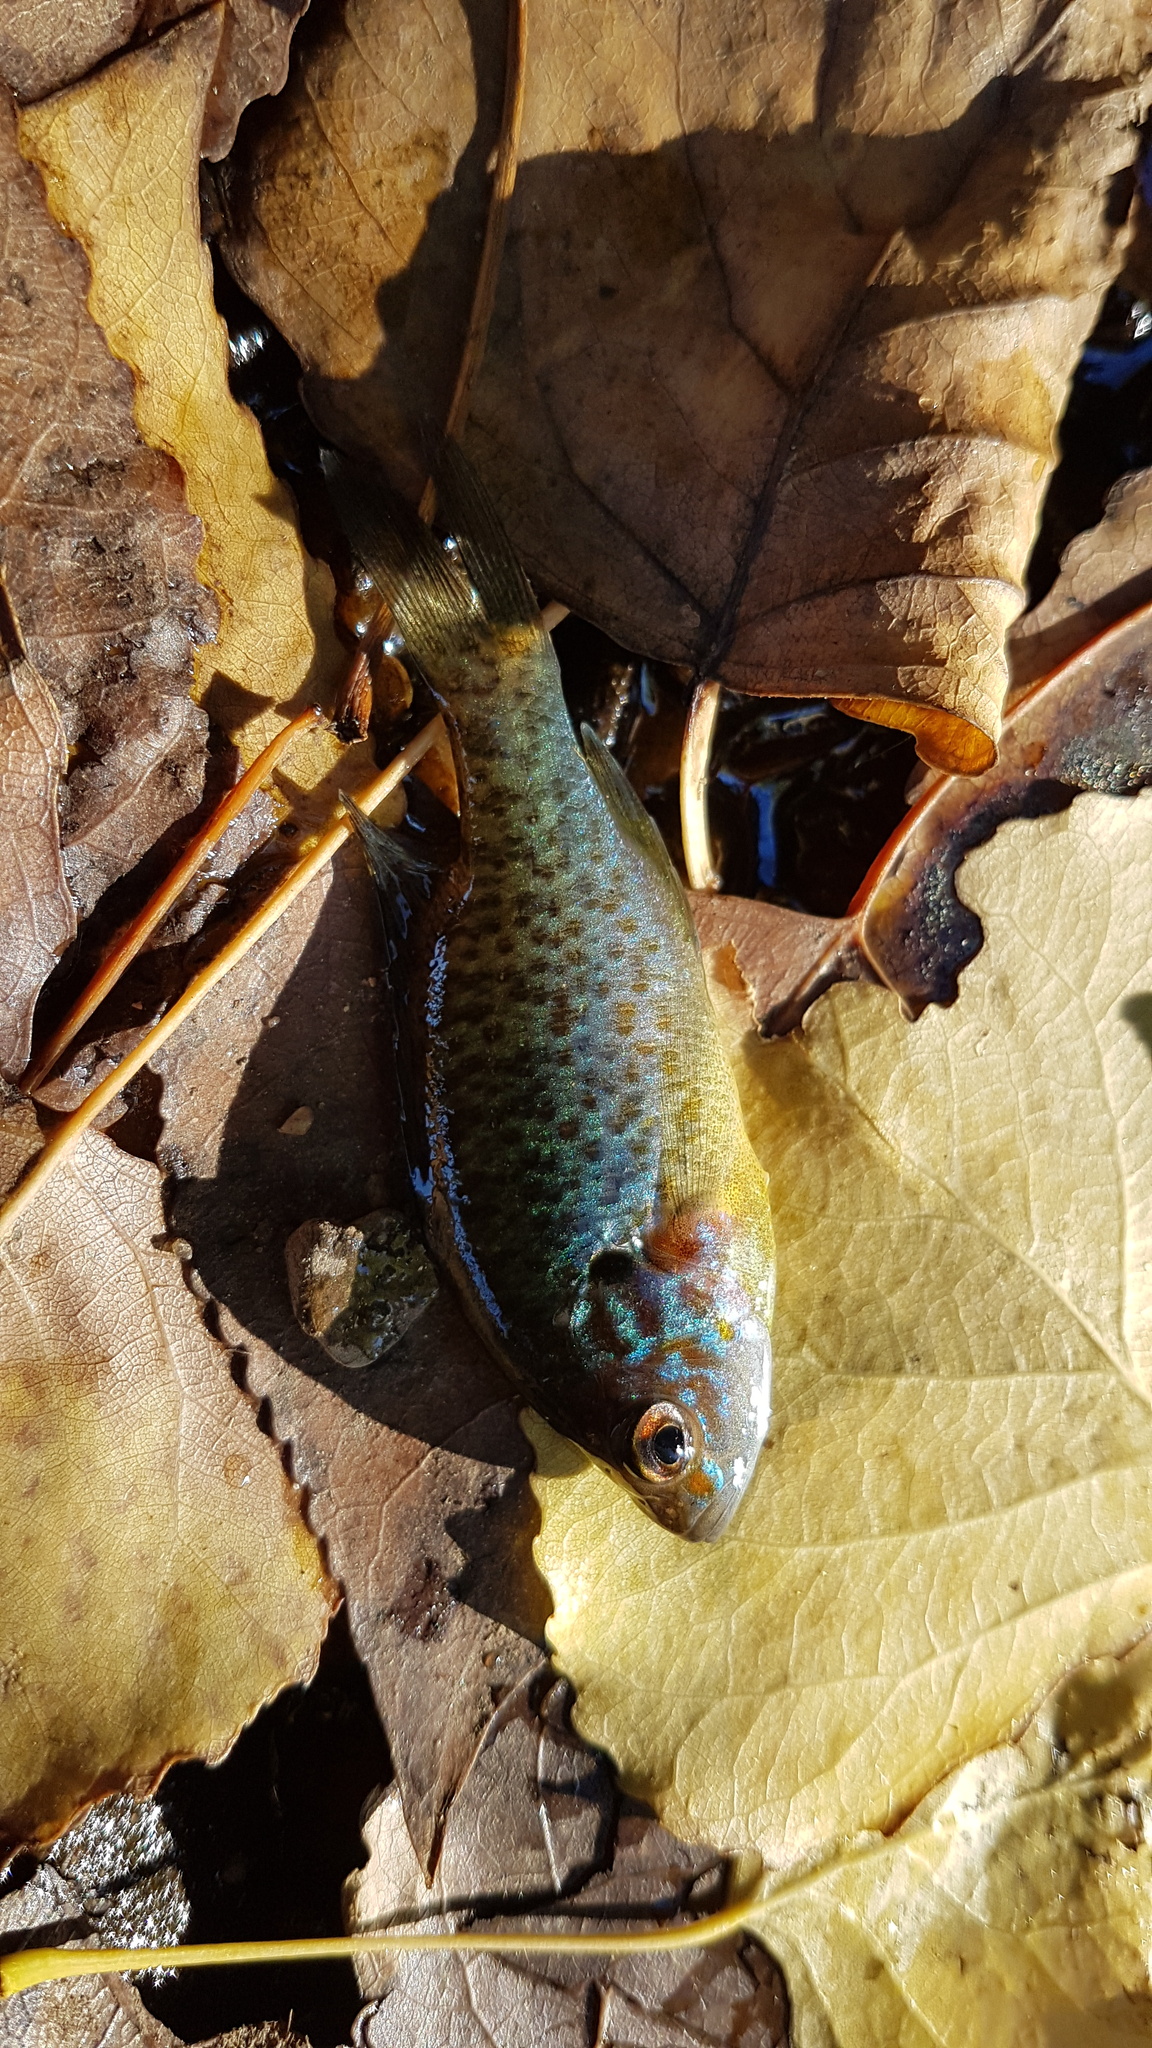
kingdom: Animalia
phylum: Chordata
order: Perciformes
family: Centrarchidae
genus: Lepomis
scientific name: Lepomis gibbosus
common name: Pumpkinseed
